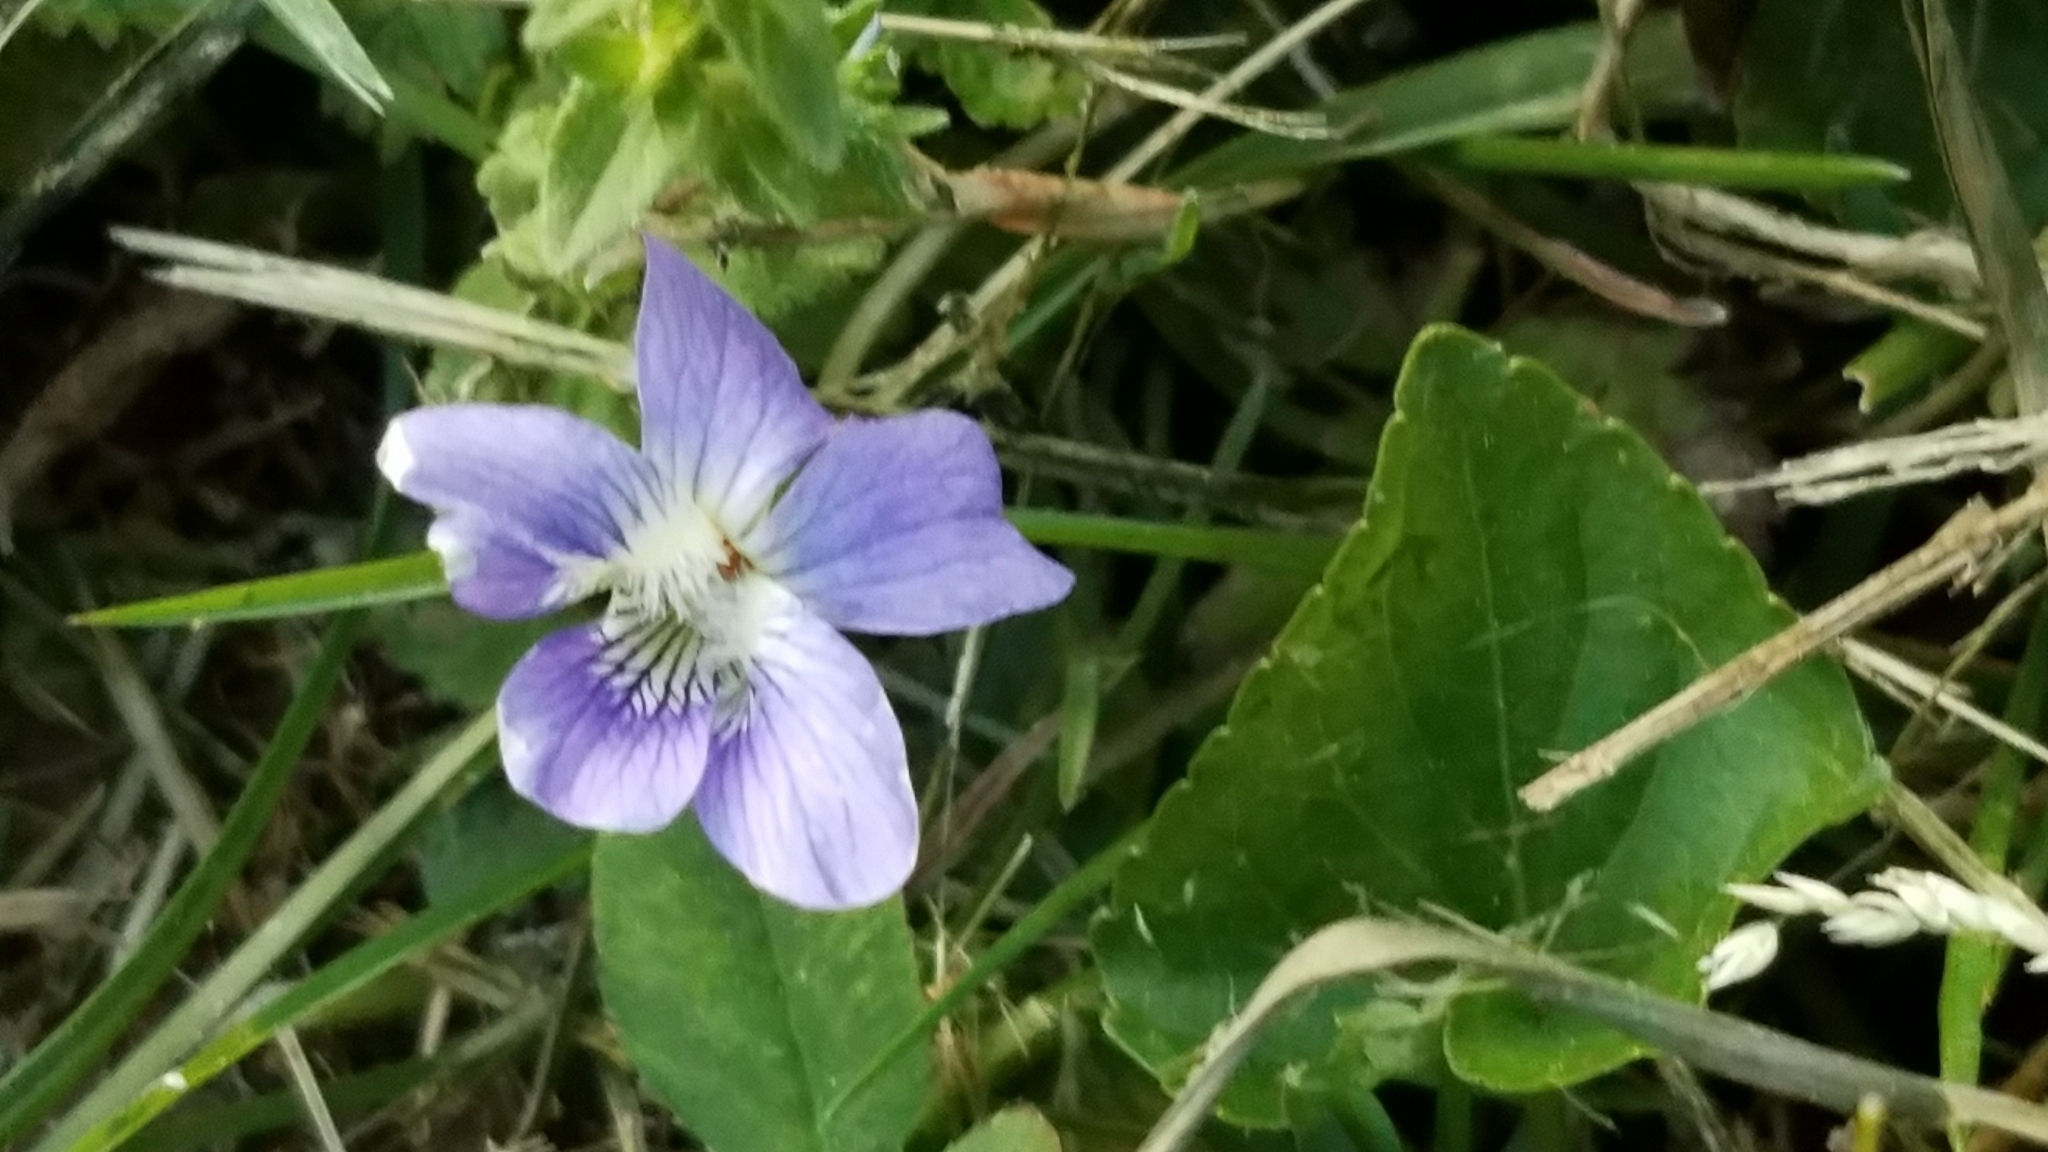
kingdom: Plantae
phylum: Tracheophyta
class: Magnoliopsida
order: Malpighiales
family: Violaceae
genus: Viola
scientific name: Viola sororia
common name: Dooryard violet
